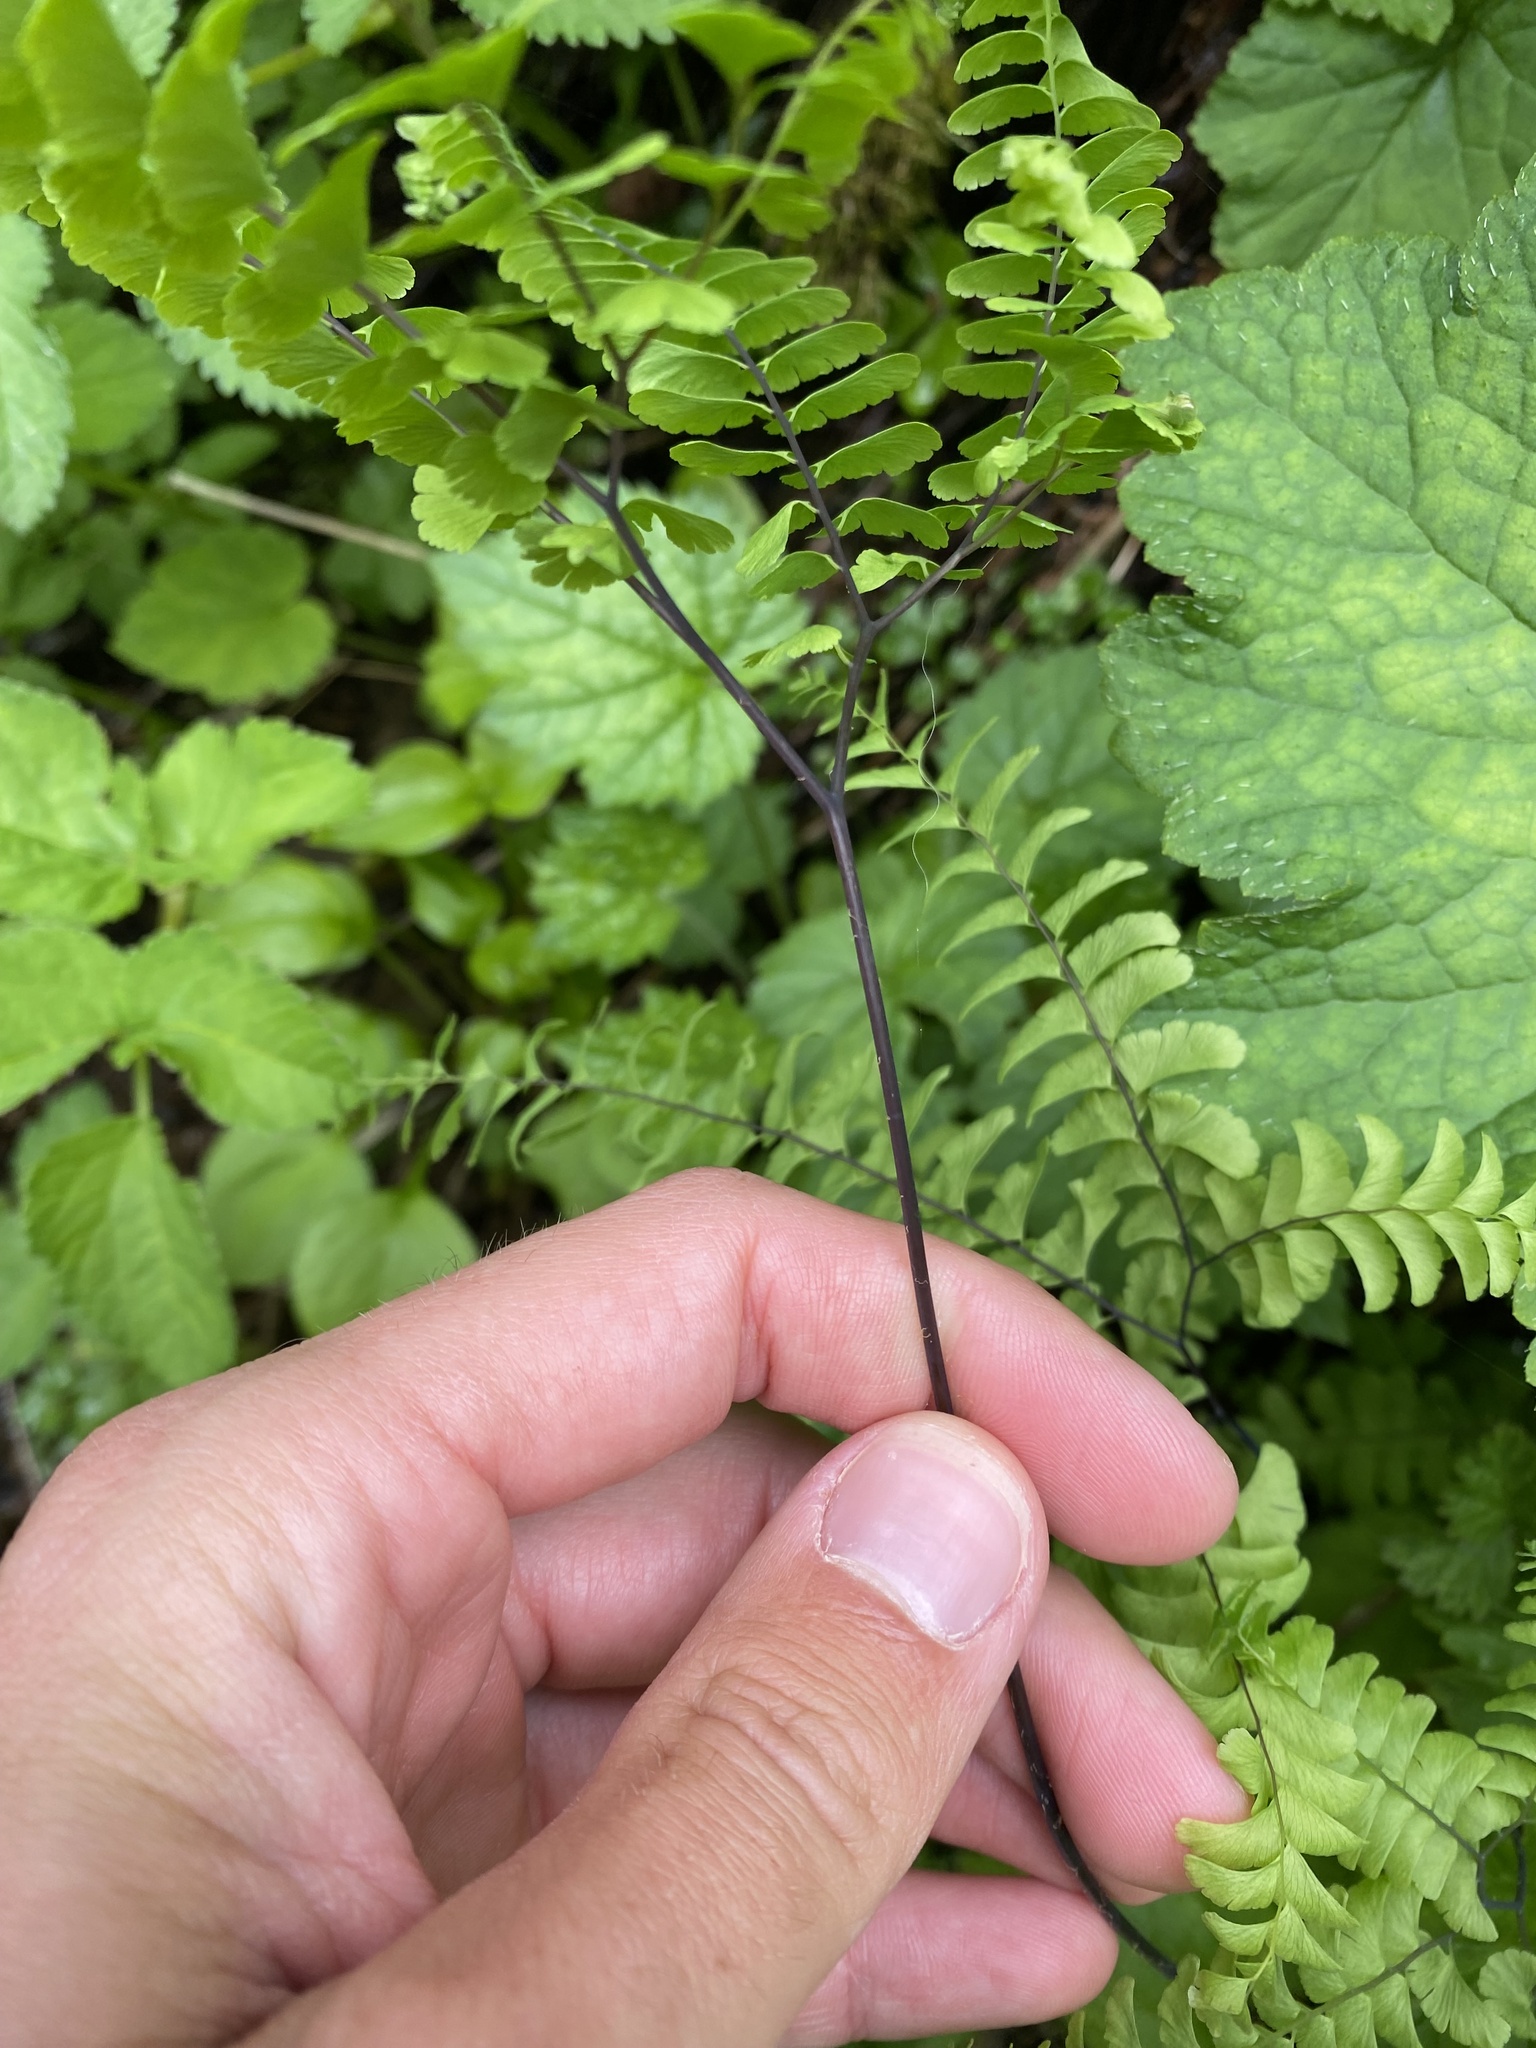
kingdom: Plantae
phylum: Tracheophyta
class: Polypodiopsida
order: Polypodiales
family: Pteridaceae
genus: Adiantum
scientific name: Adiantum aleuticum
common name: Aleutian maidenhair fern
